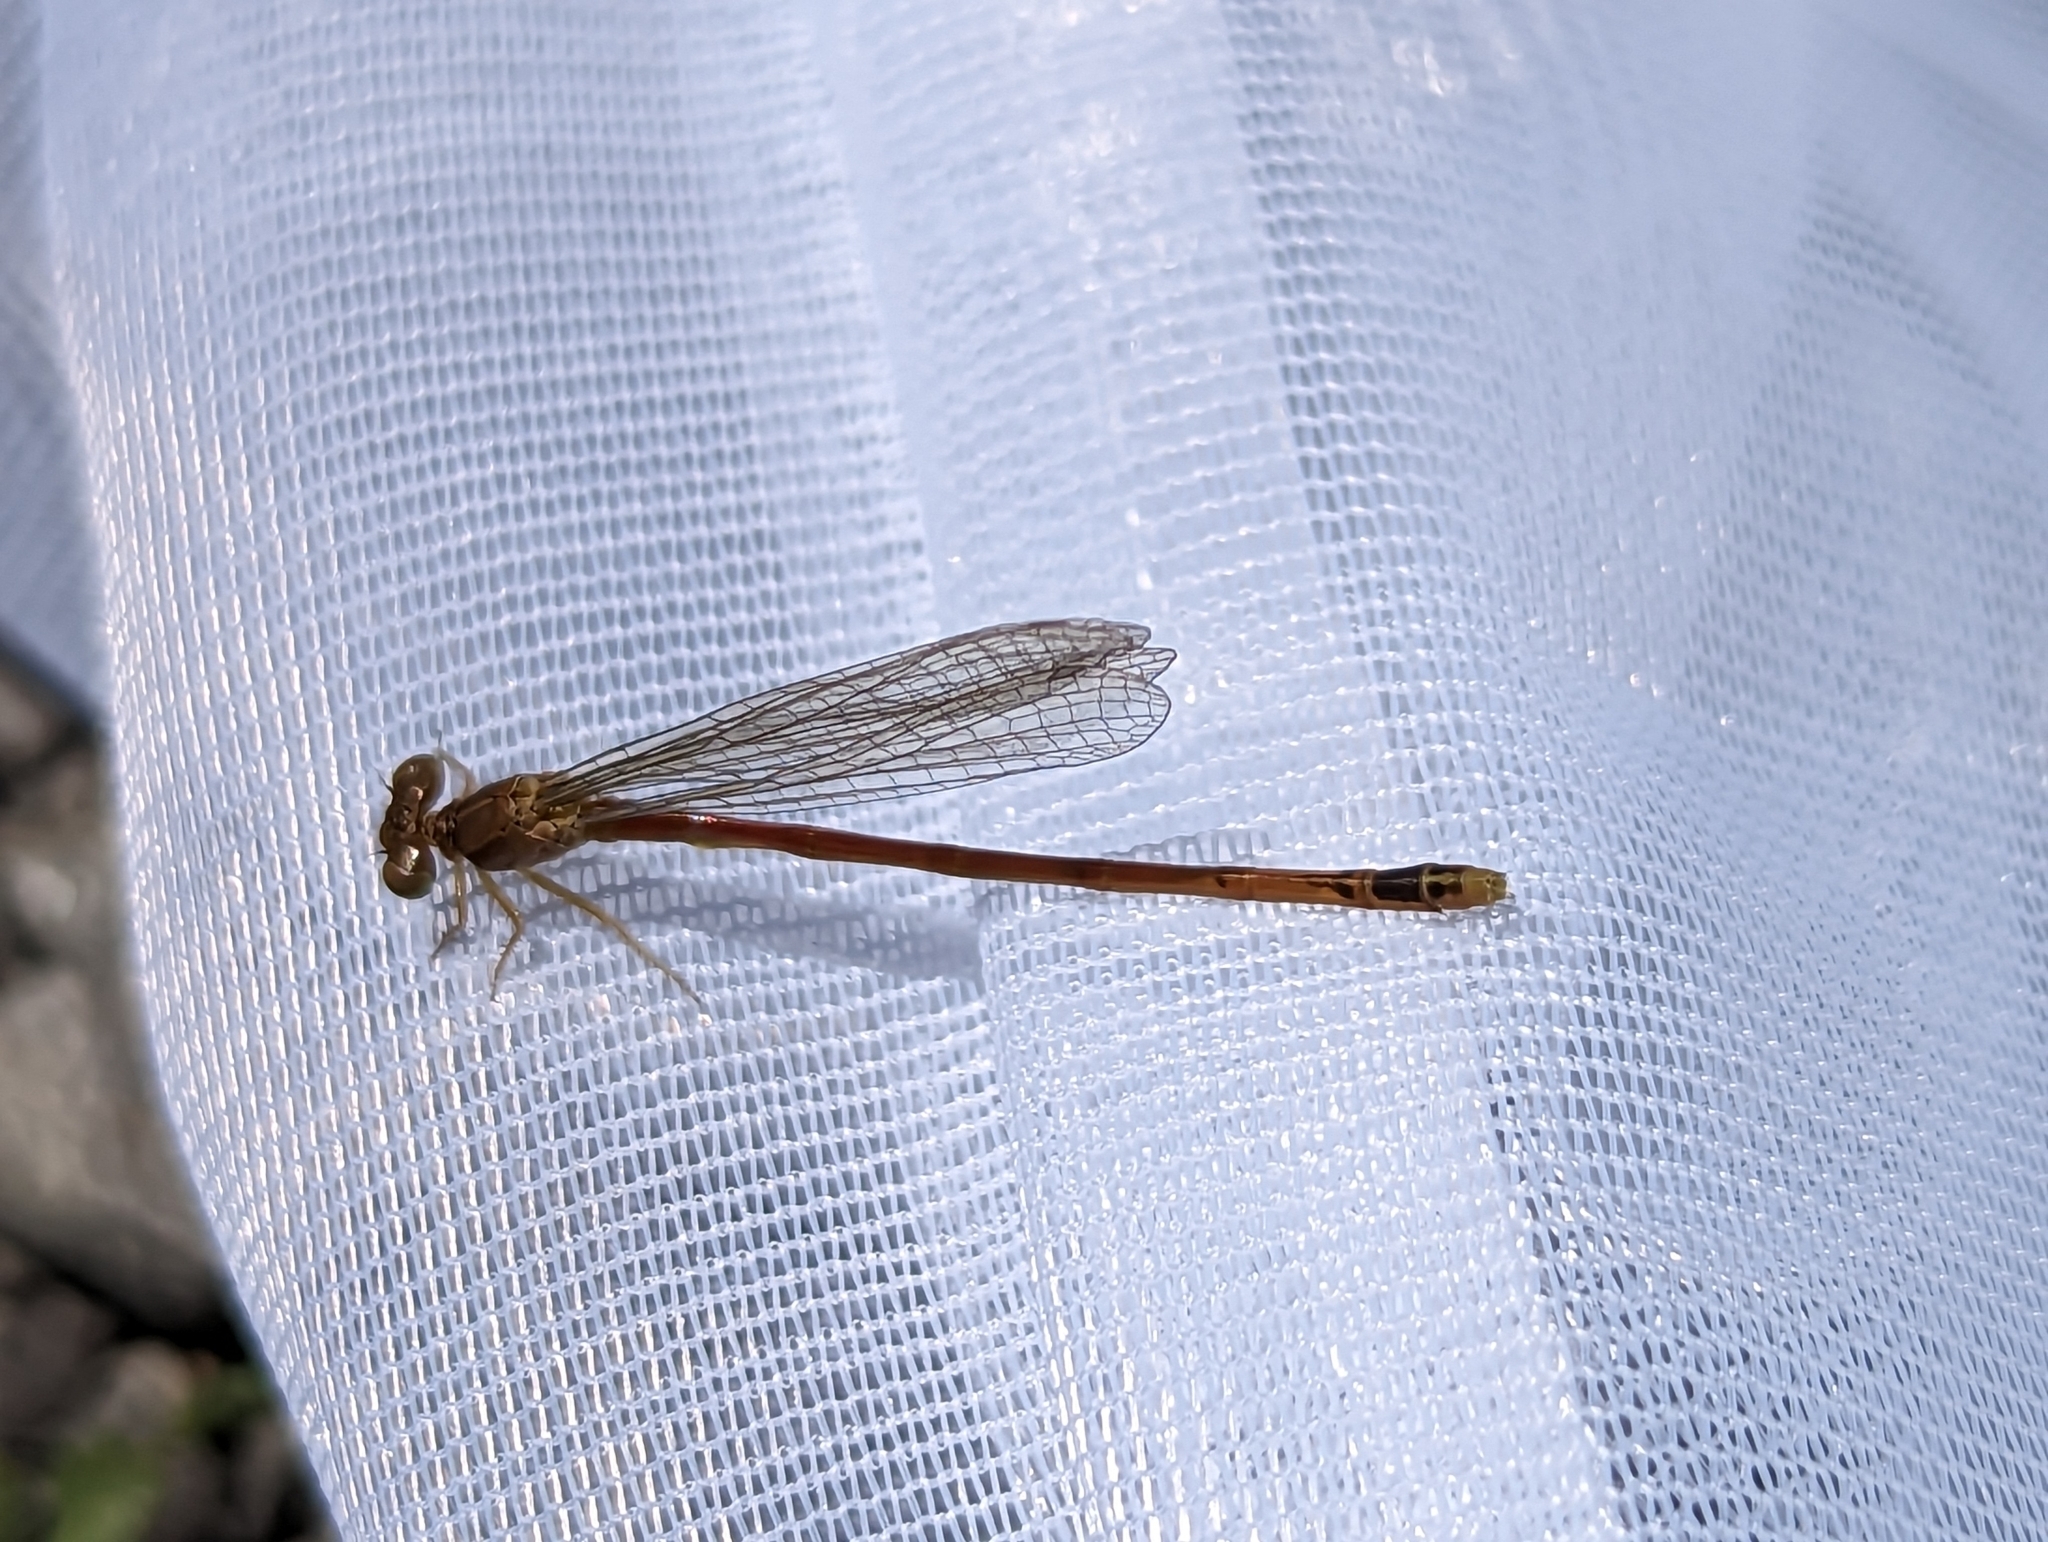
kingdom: Animalia
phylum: Arthropoda
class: Insecta
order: Odonata
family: Coenagrionidae
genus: Amphiagrion
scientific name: Amphiagrion saucium
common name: Eastern red damsel
